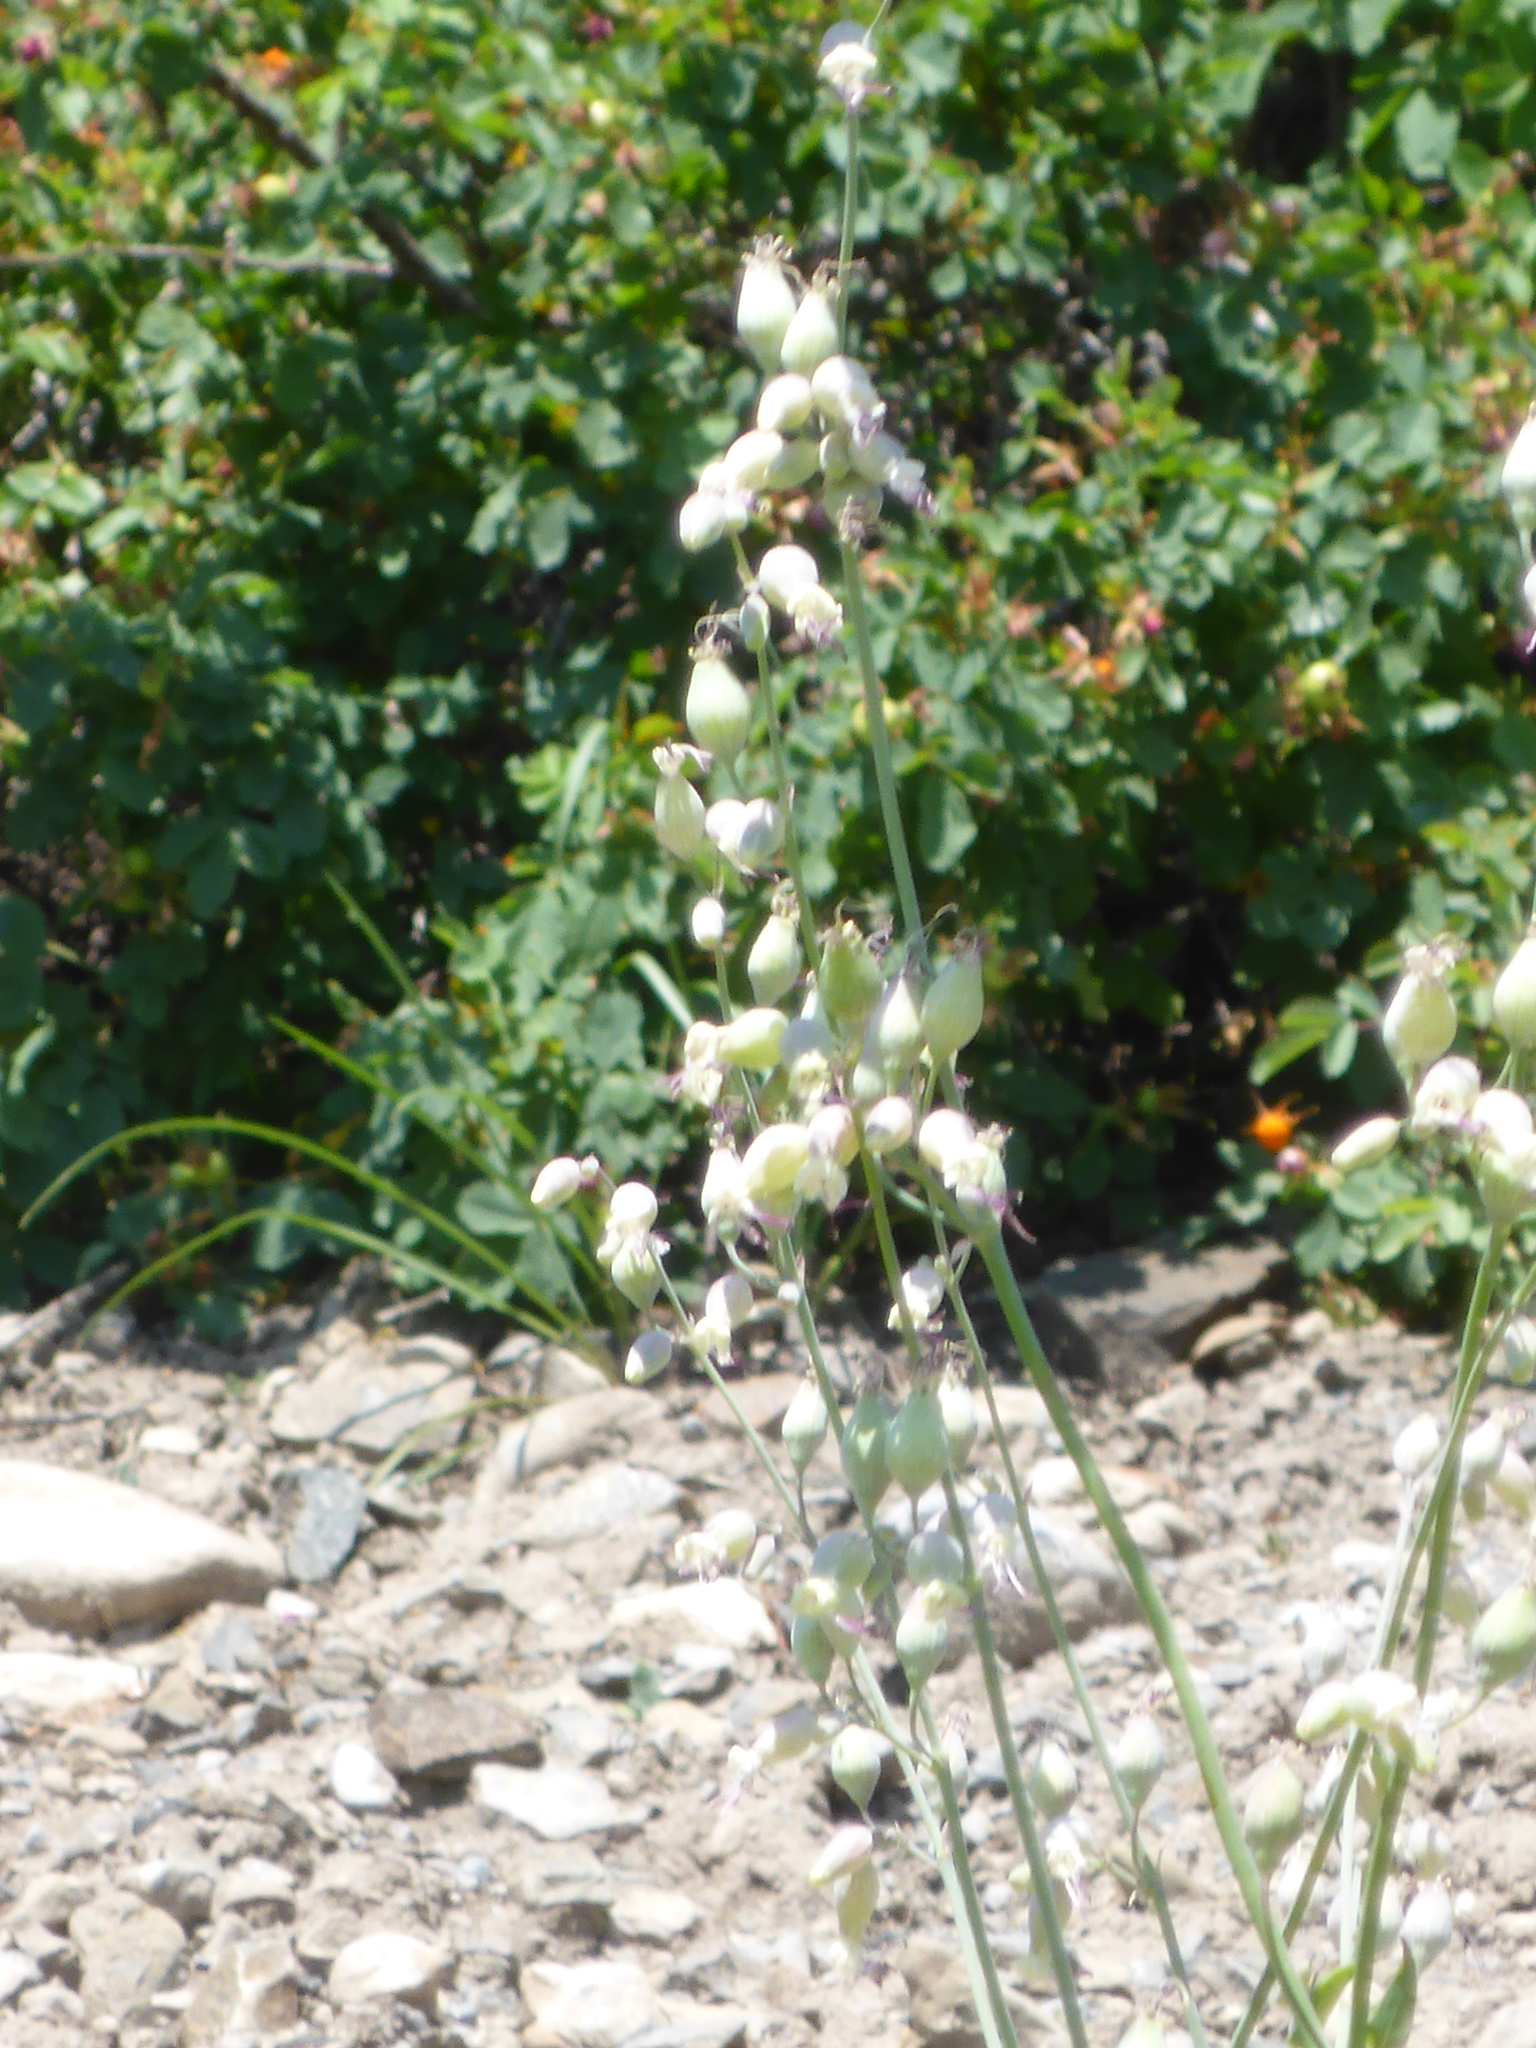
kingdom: Plantae
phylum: Tracheophyta
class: Magnoliopsida
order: Caryophyllales
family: Caryophyllaceae
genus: Silene
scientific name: Silene csereii
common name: Balkan catchfly
